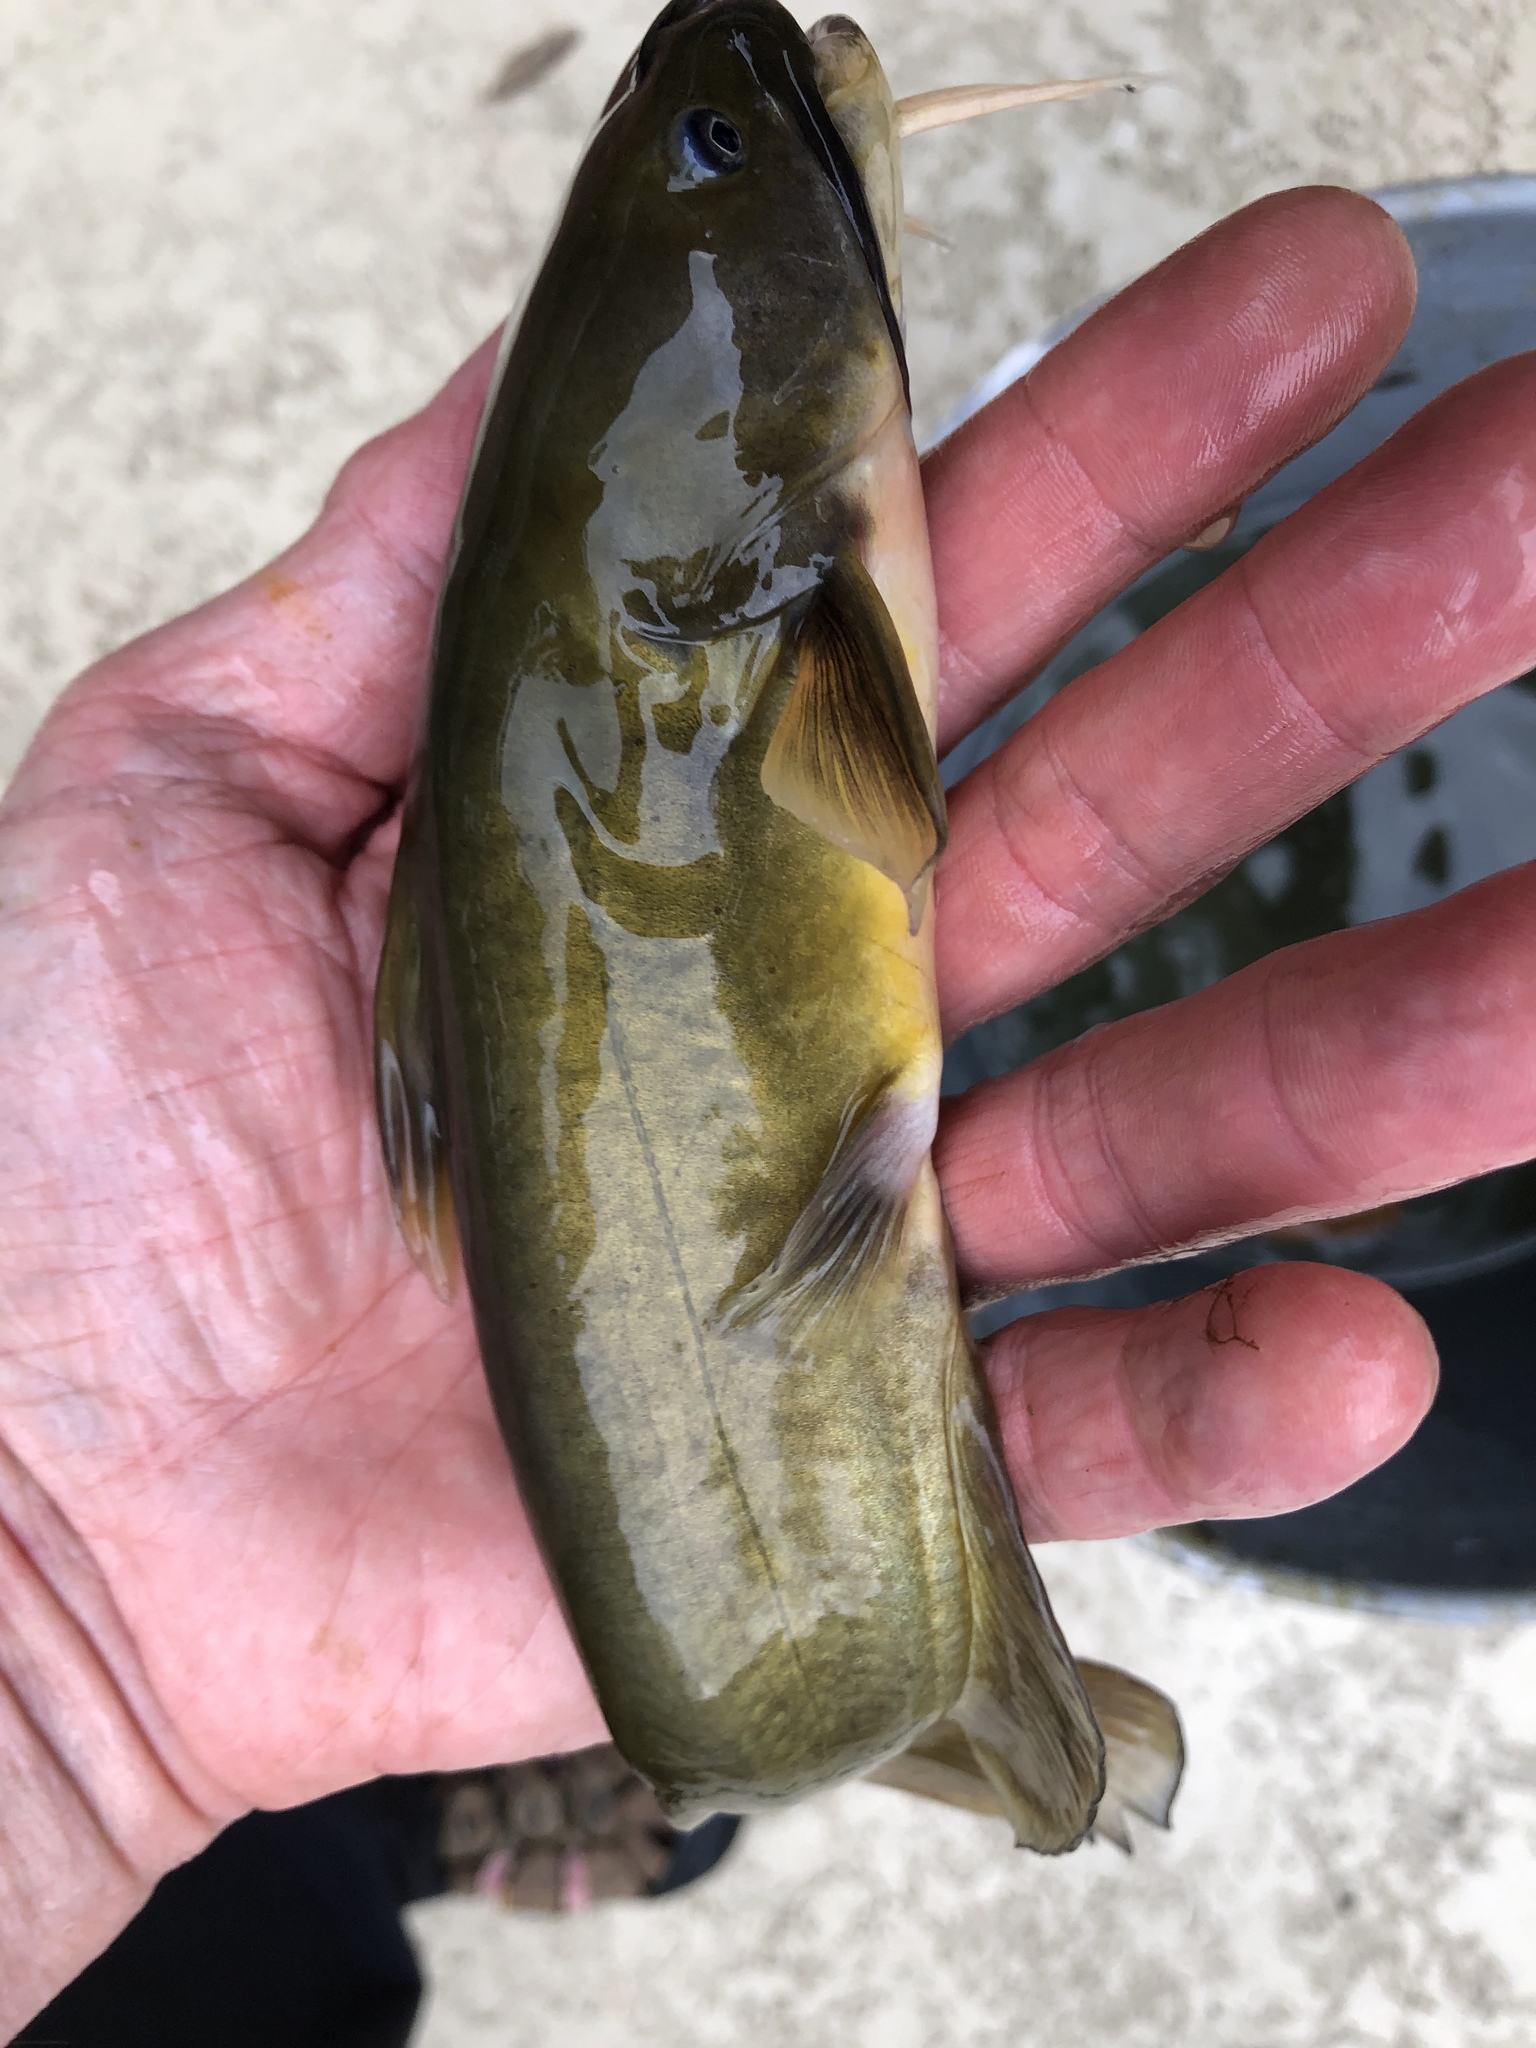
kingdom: Animalia
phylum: Chordata
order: Siluriformes
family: Ictaluridae
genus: Ameiurus
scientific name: Ameiurus natalis
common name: Yellow bullhead
